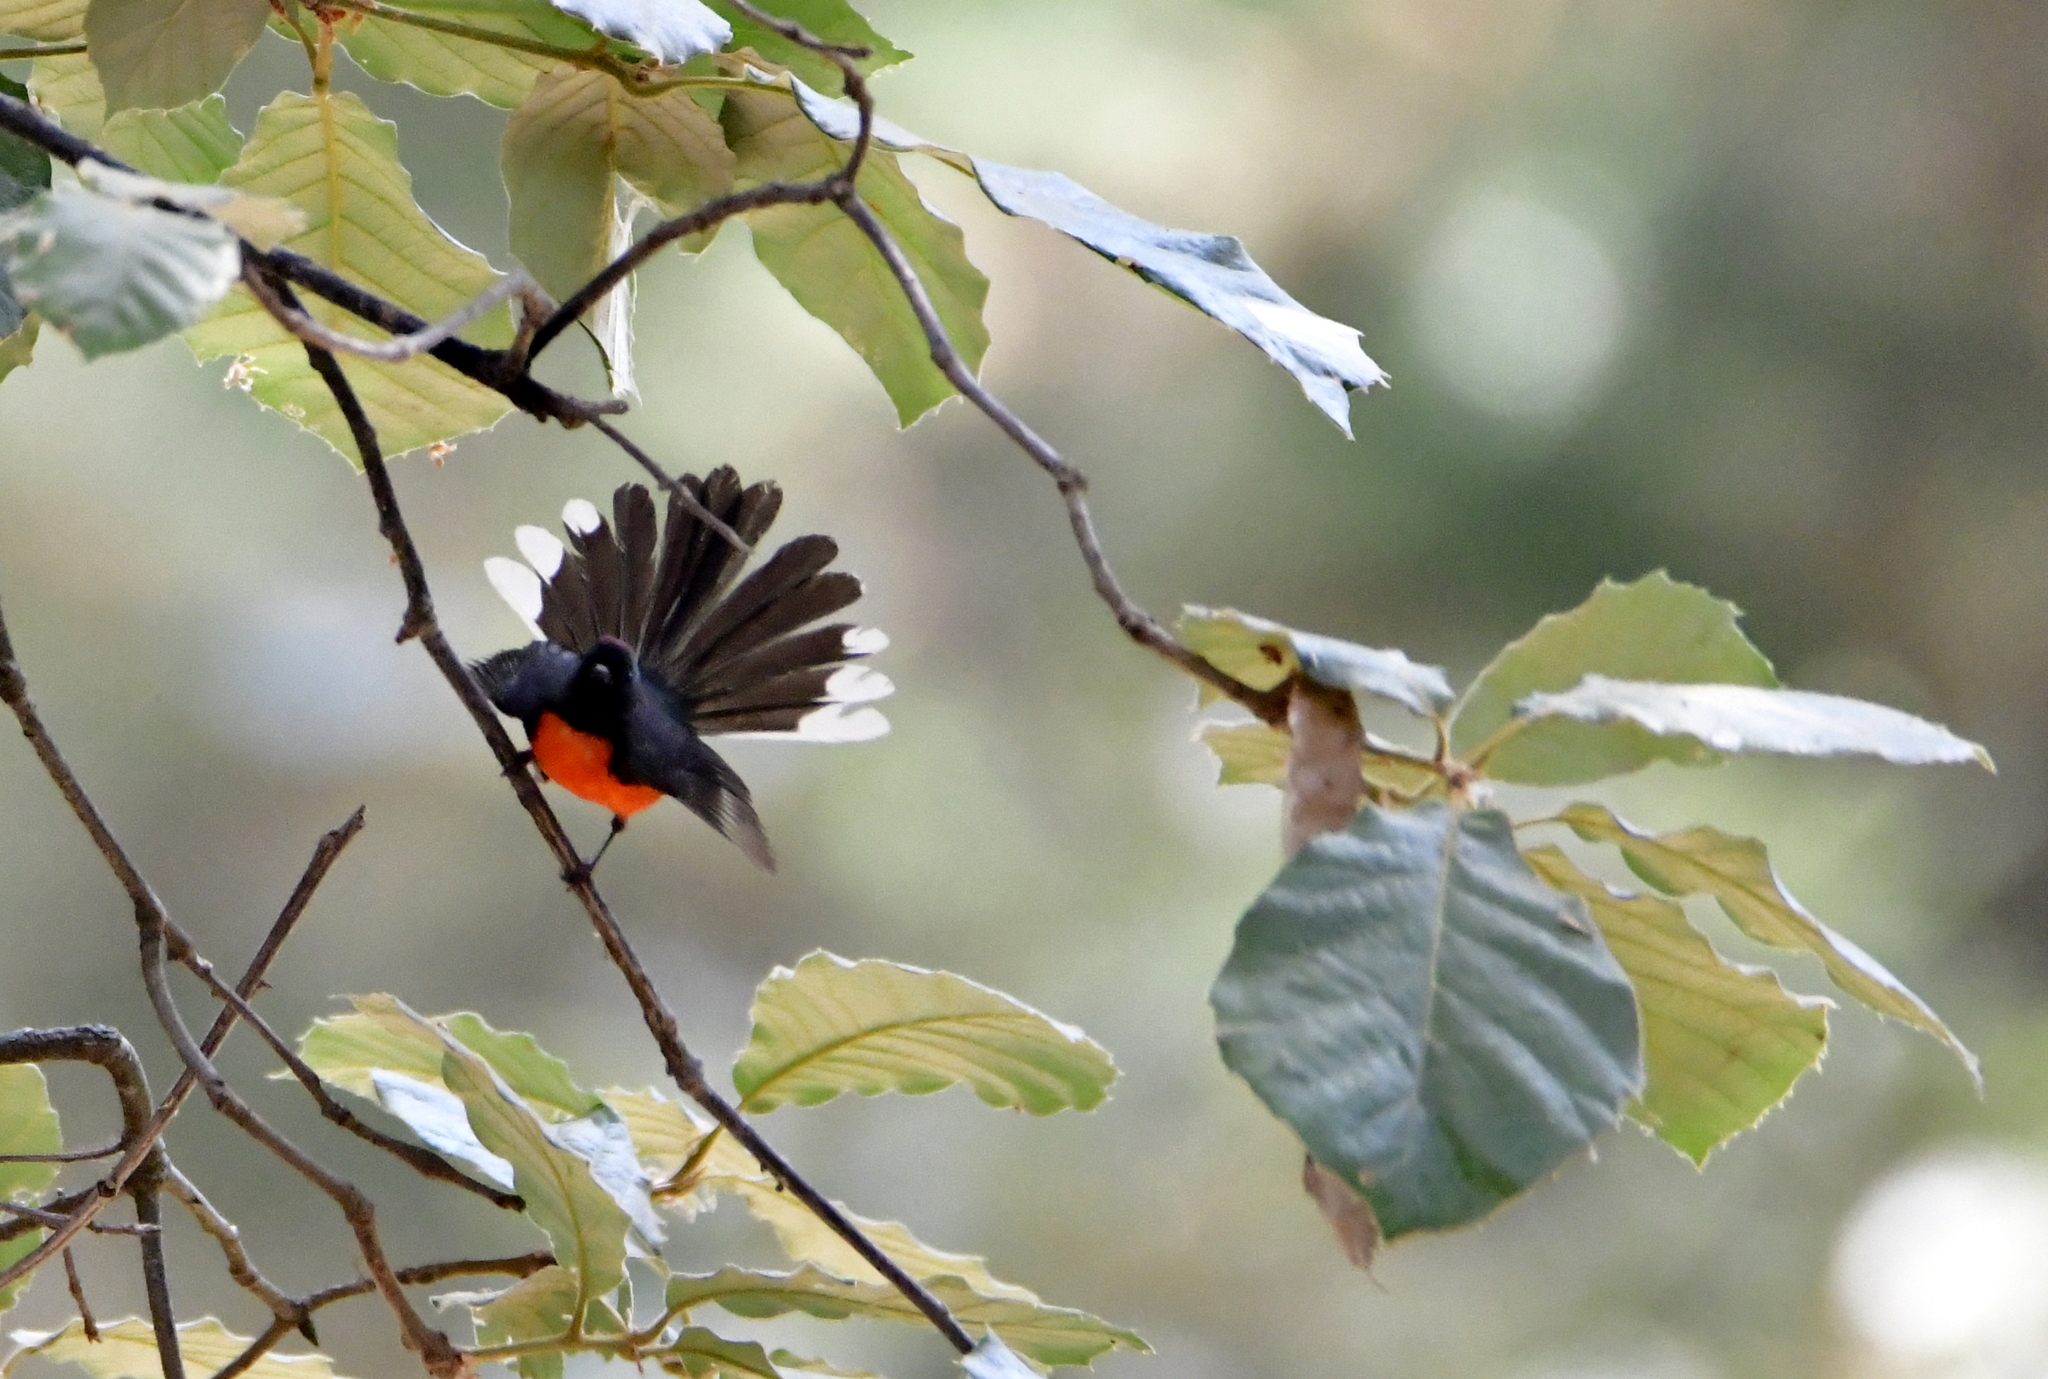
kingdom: Animalia
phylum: Chordata
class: Aves
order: Passeriformes
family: Parulidae
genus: Myioborus
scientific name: Myioborus miniatus
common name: Slate-throated redstart
